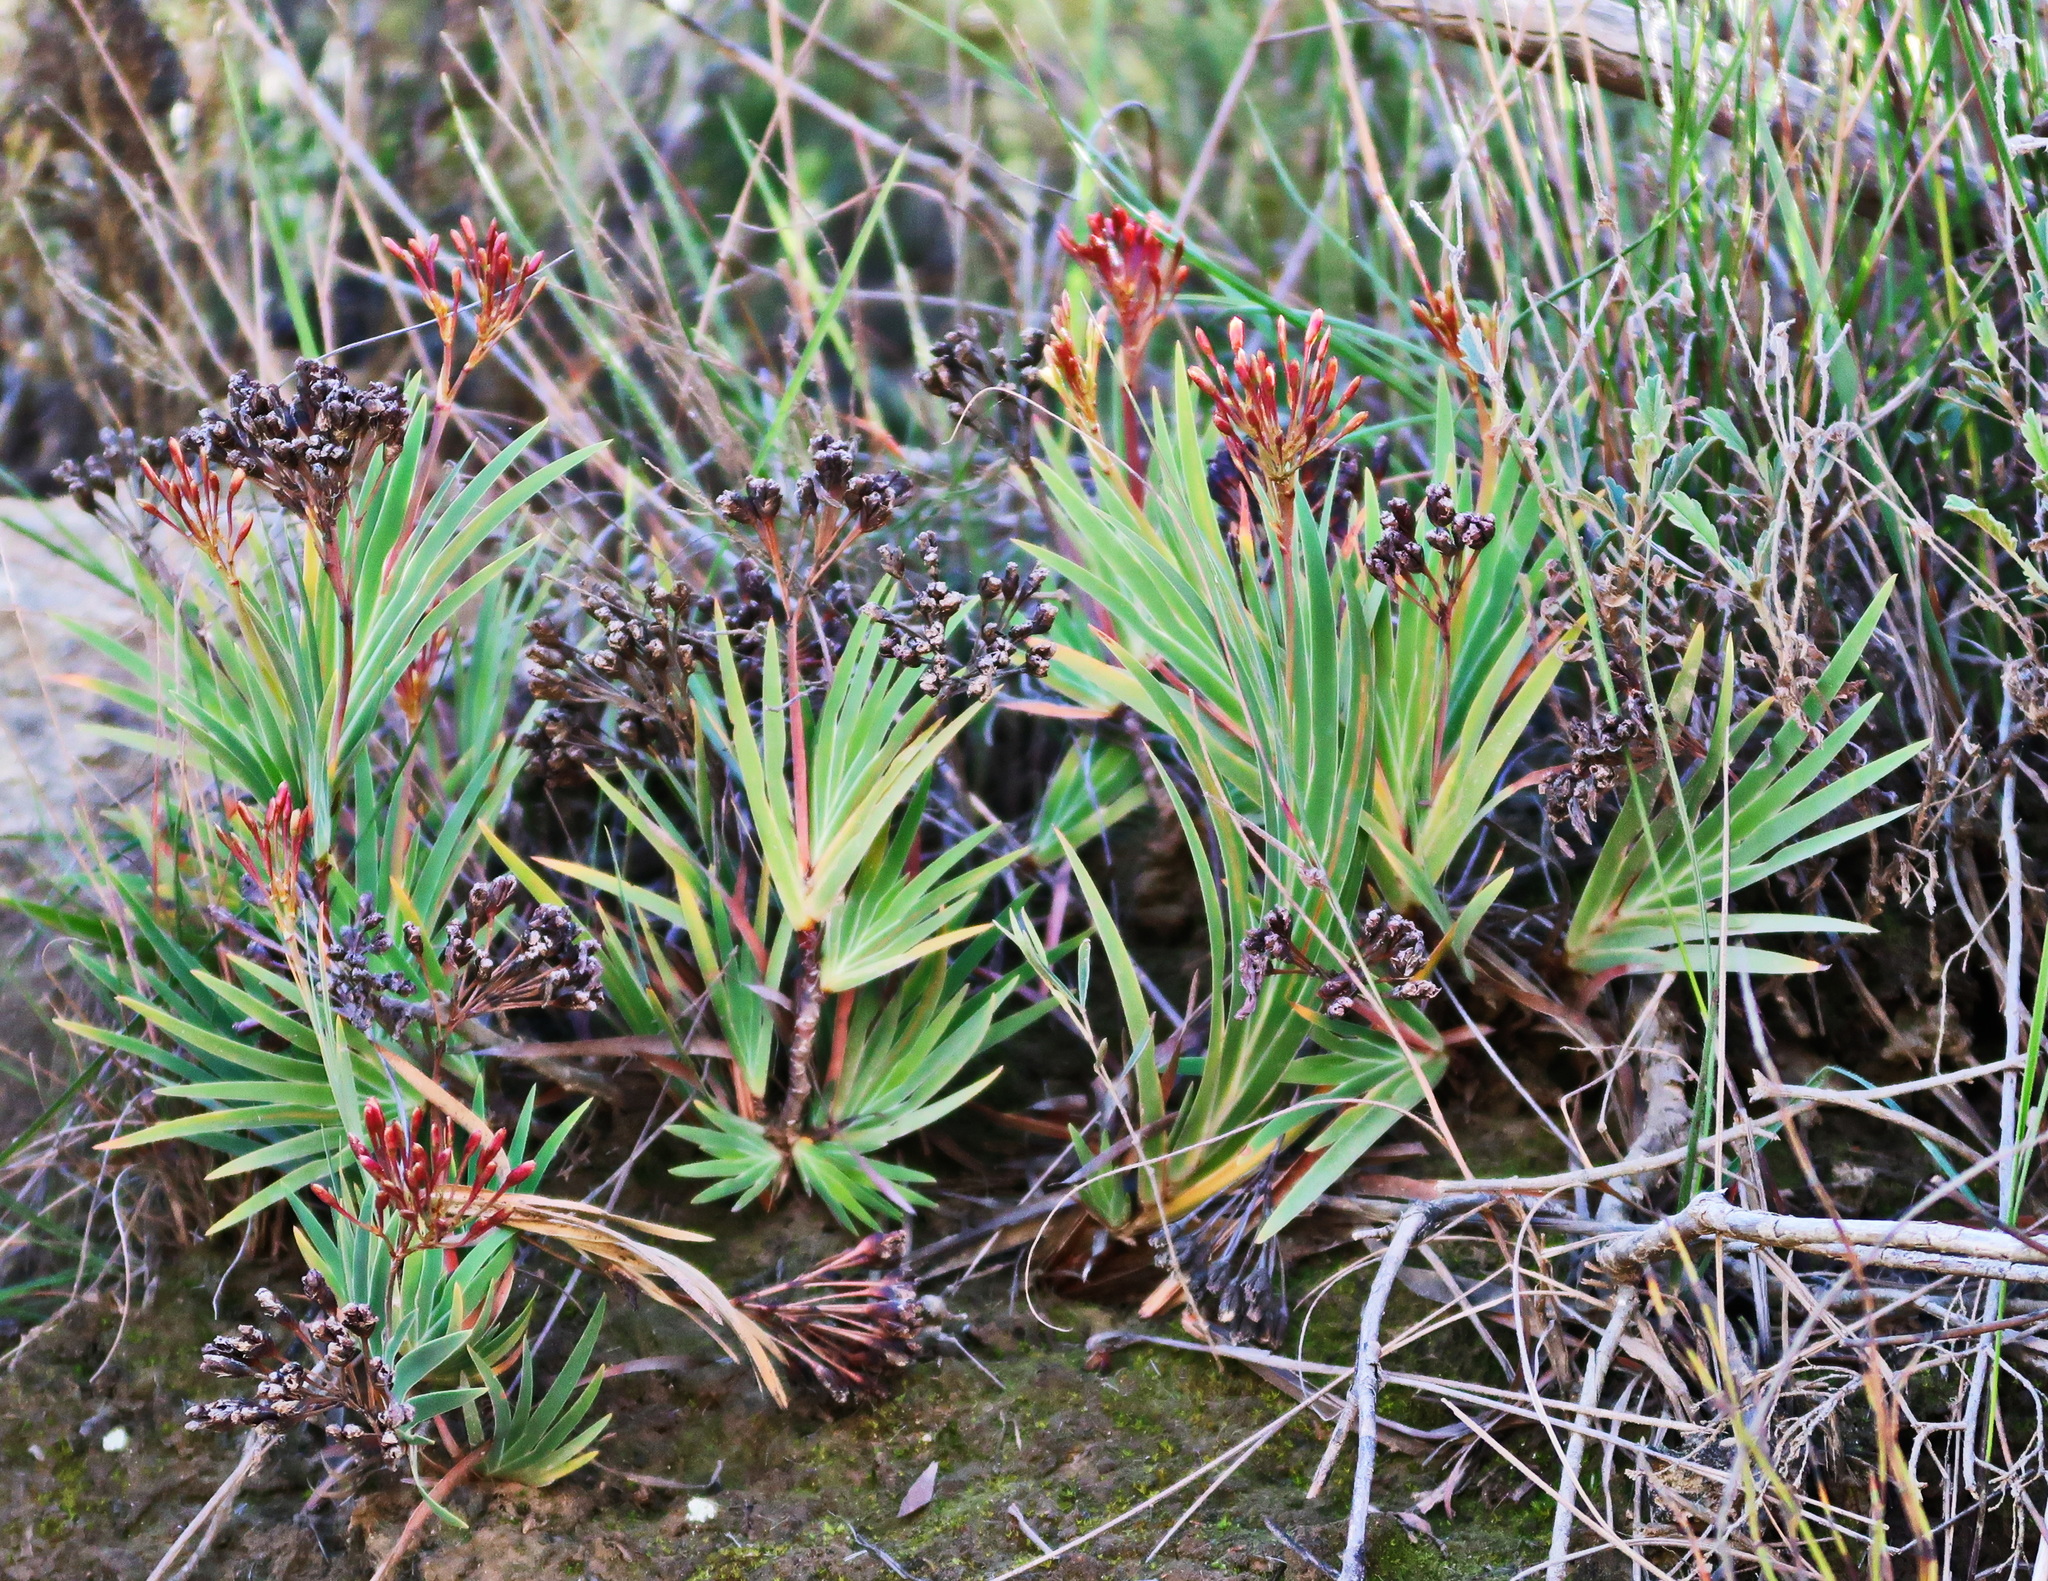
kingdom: Plantae
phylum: Tracheophyta
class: Liliopsida
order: Asparagales
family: Iridaceae
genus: Nivenia
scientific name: Nivenia binata
